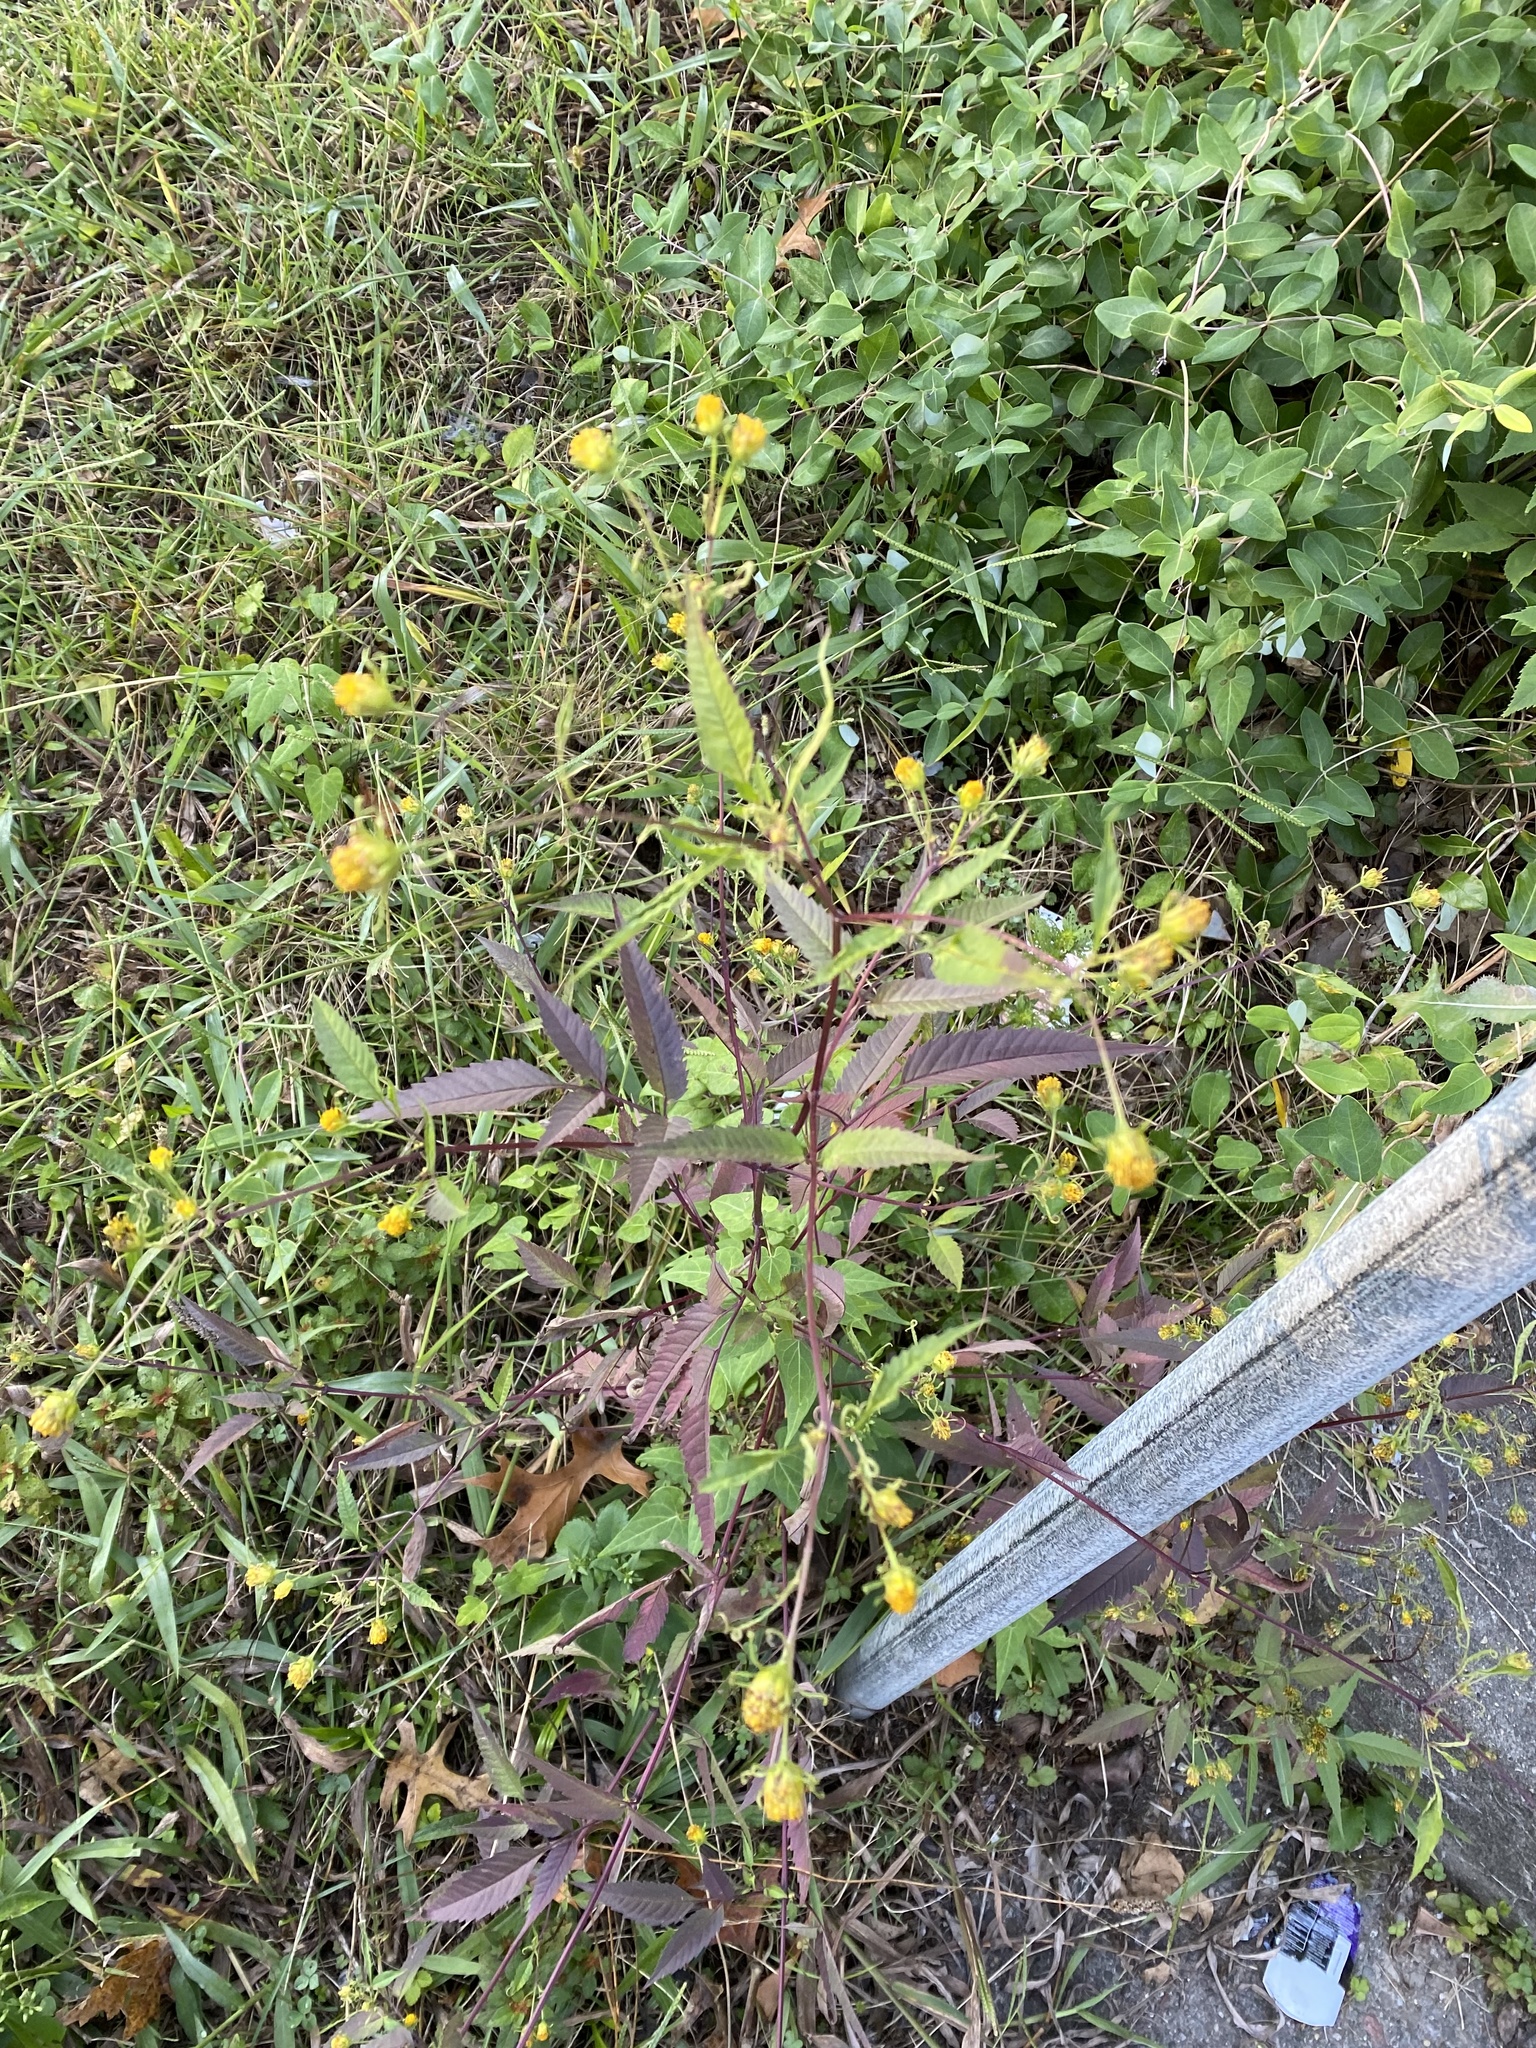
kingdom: Plantae
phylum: Tracheophyta
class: Magnoliopsida
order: Asterales
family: Asteraceae
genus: Bidens
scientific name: Bidens frondosa
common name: Beggarticks
